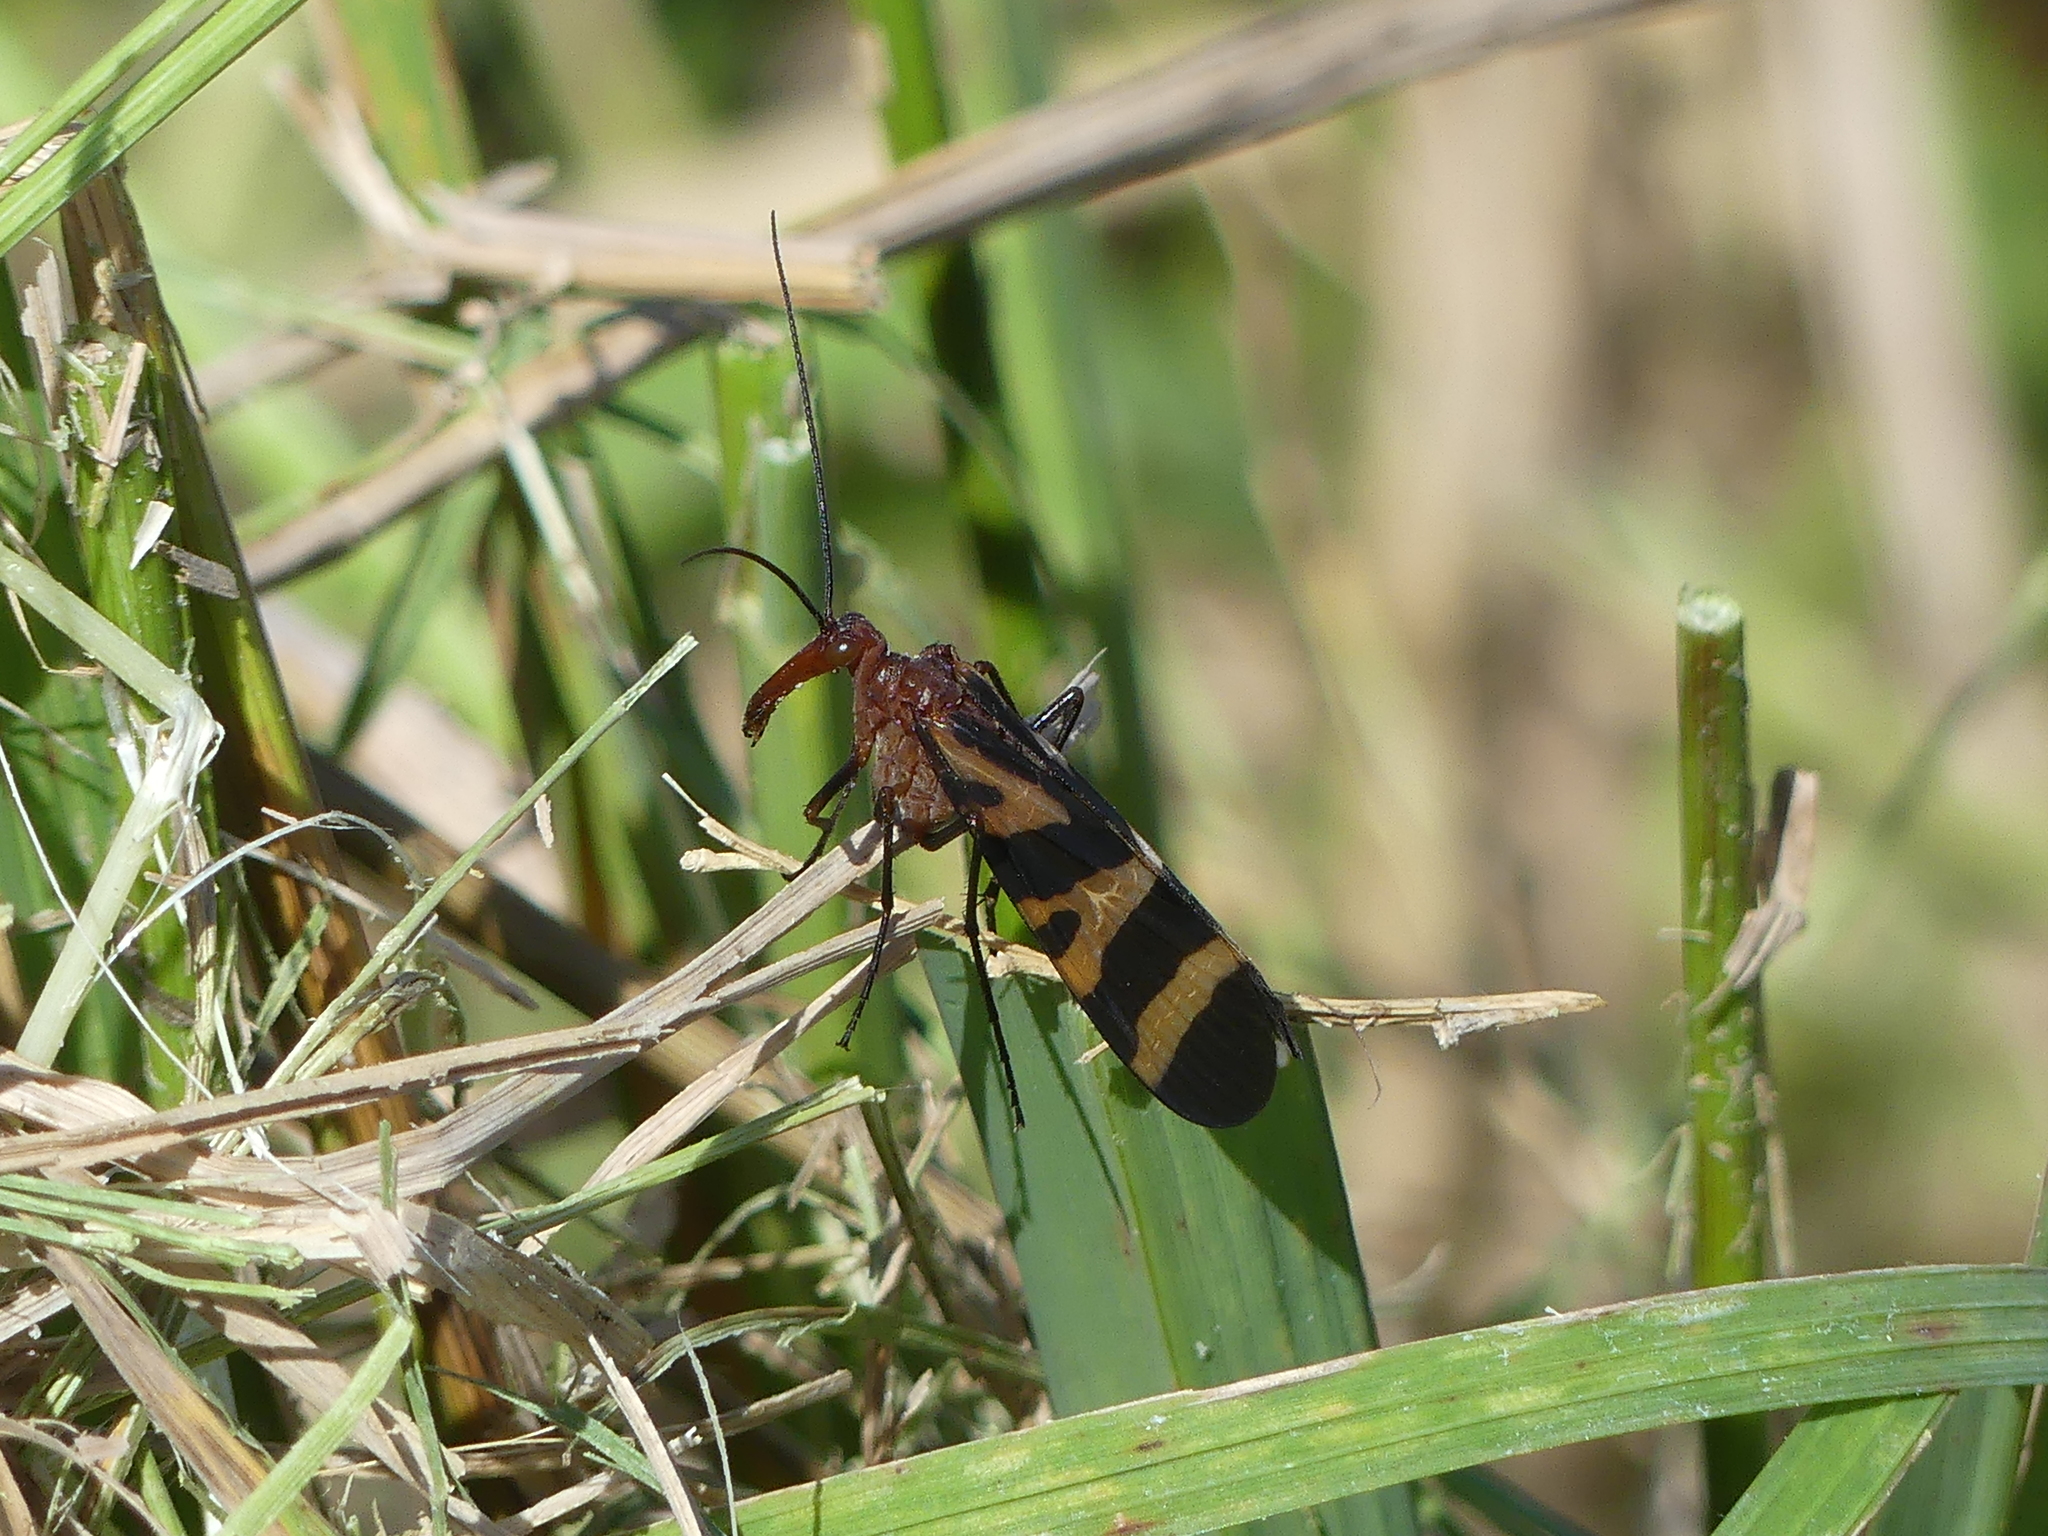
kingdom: Animalia
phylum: Arthropoda
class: Insecta
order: Mecoptera
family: Panorpidae
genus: Panorpa
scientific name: Panorpa nuptialis
